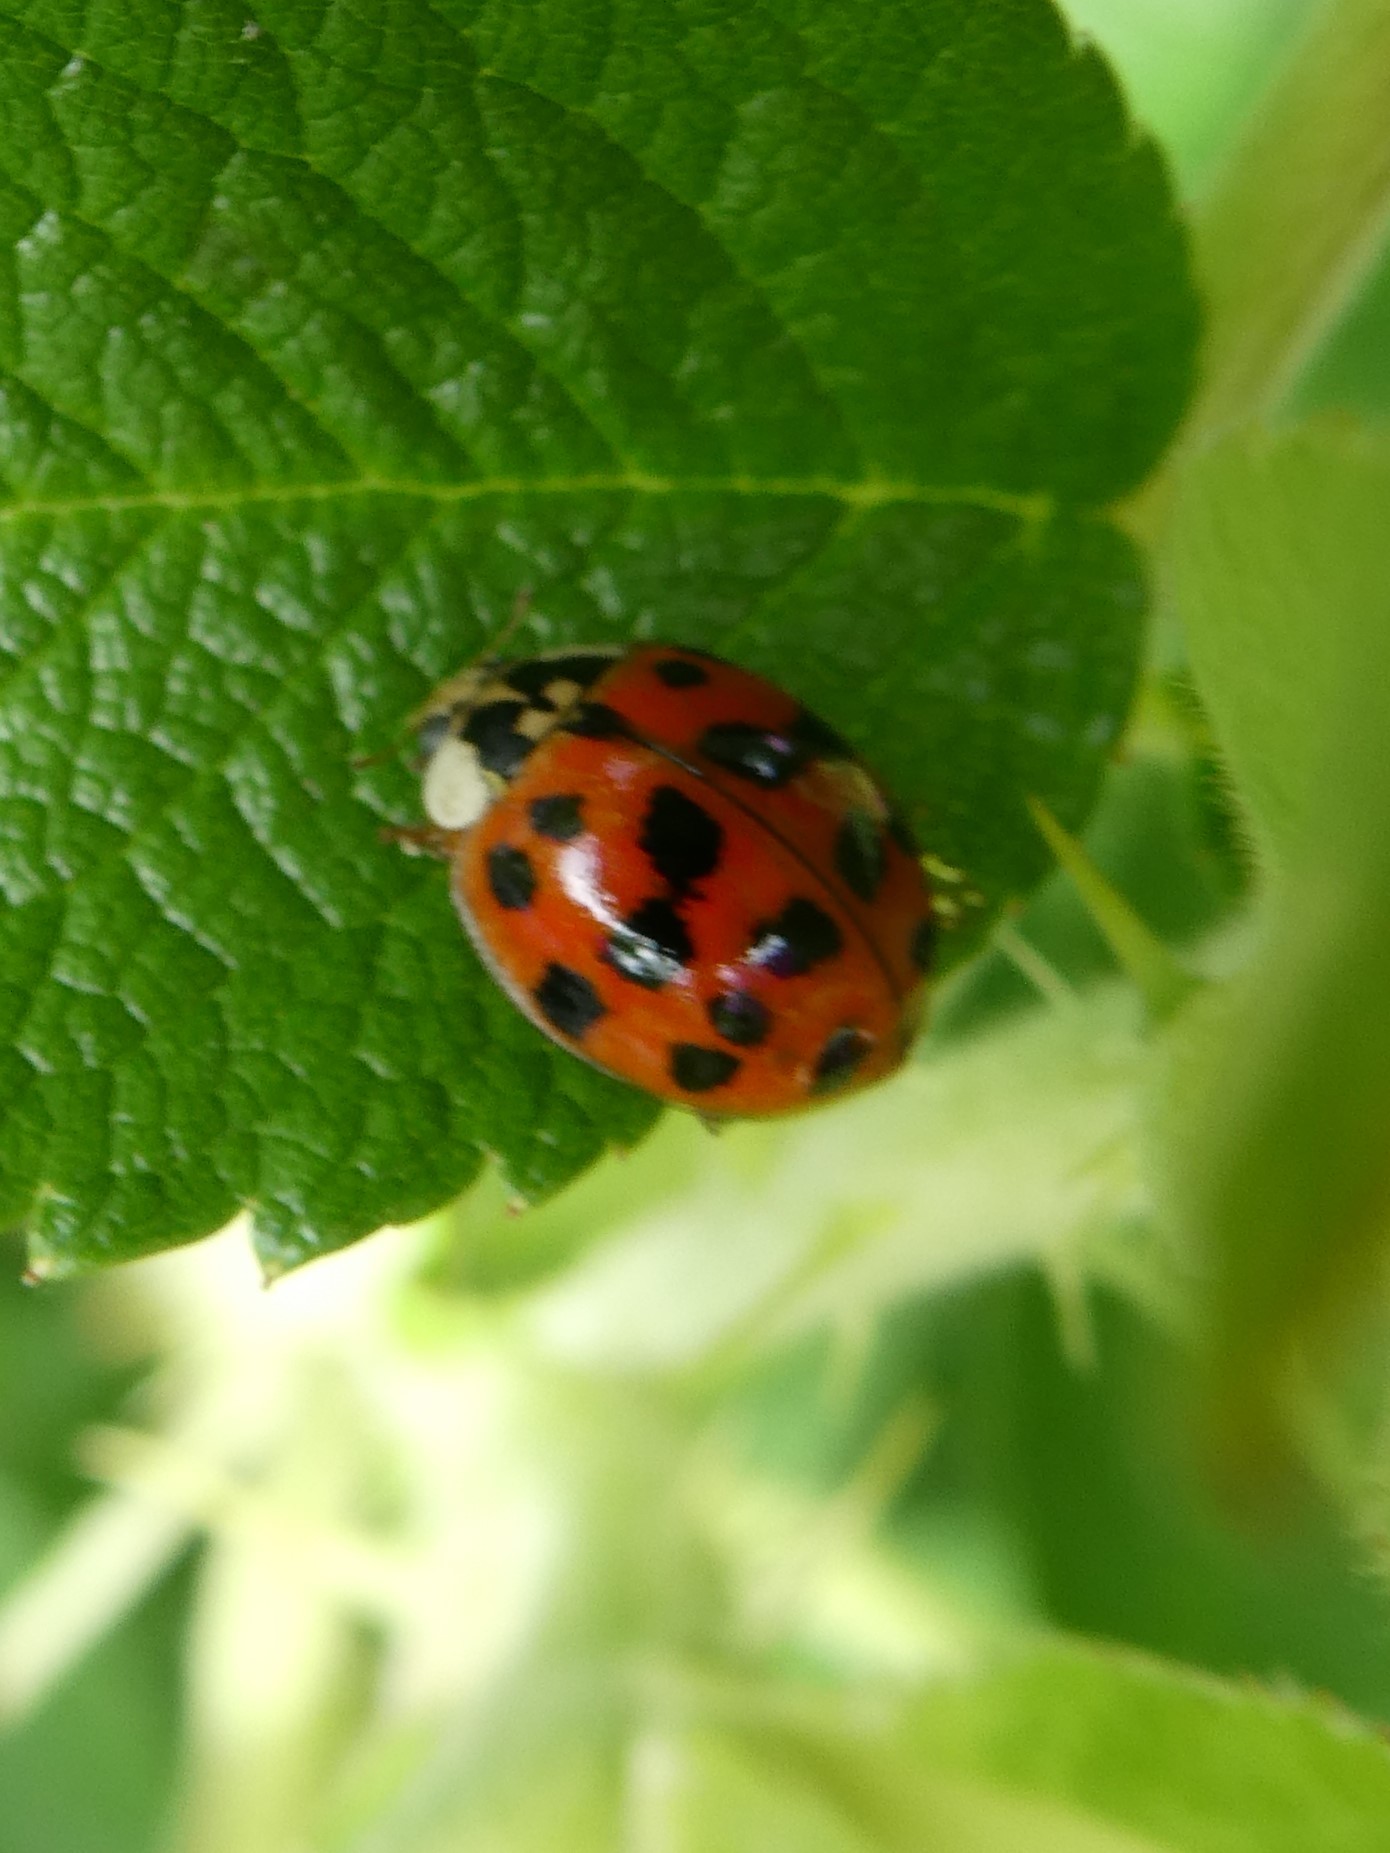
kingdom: Animalia
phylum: Arthropoda
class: Insecta
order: Coleoptera
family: Coccinellidae
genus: Harmonia
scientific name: Harmonia axyridis
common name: Harlequin ladybird
